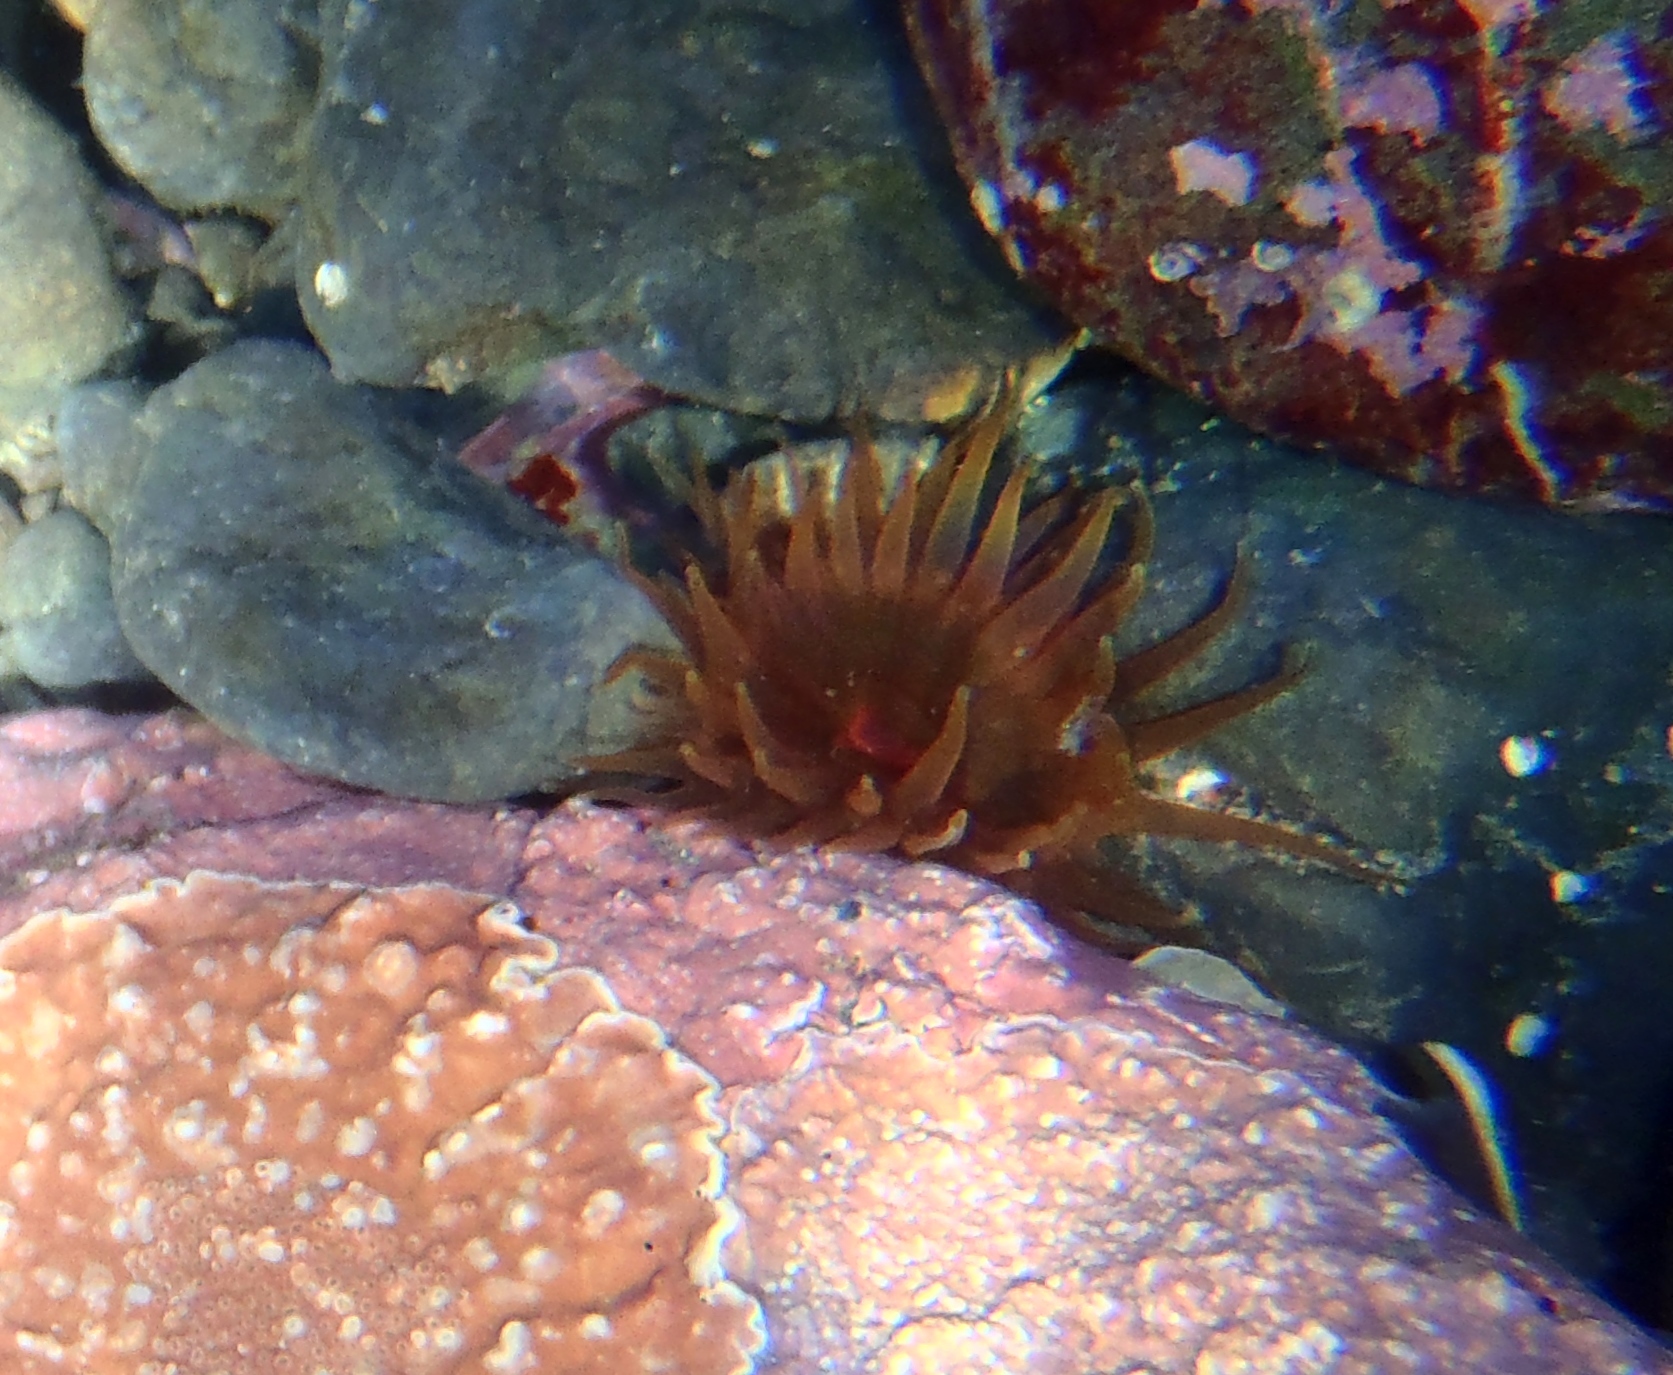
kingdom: Animalia
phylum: Cnidaria
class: Anthozoa
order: Actiniaria
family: Actiniidae
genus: Isactinia
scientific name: Isactinia olivacea
